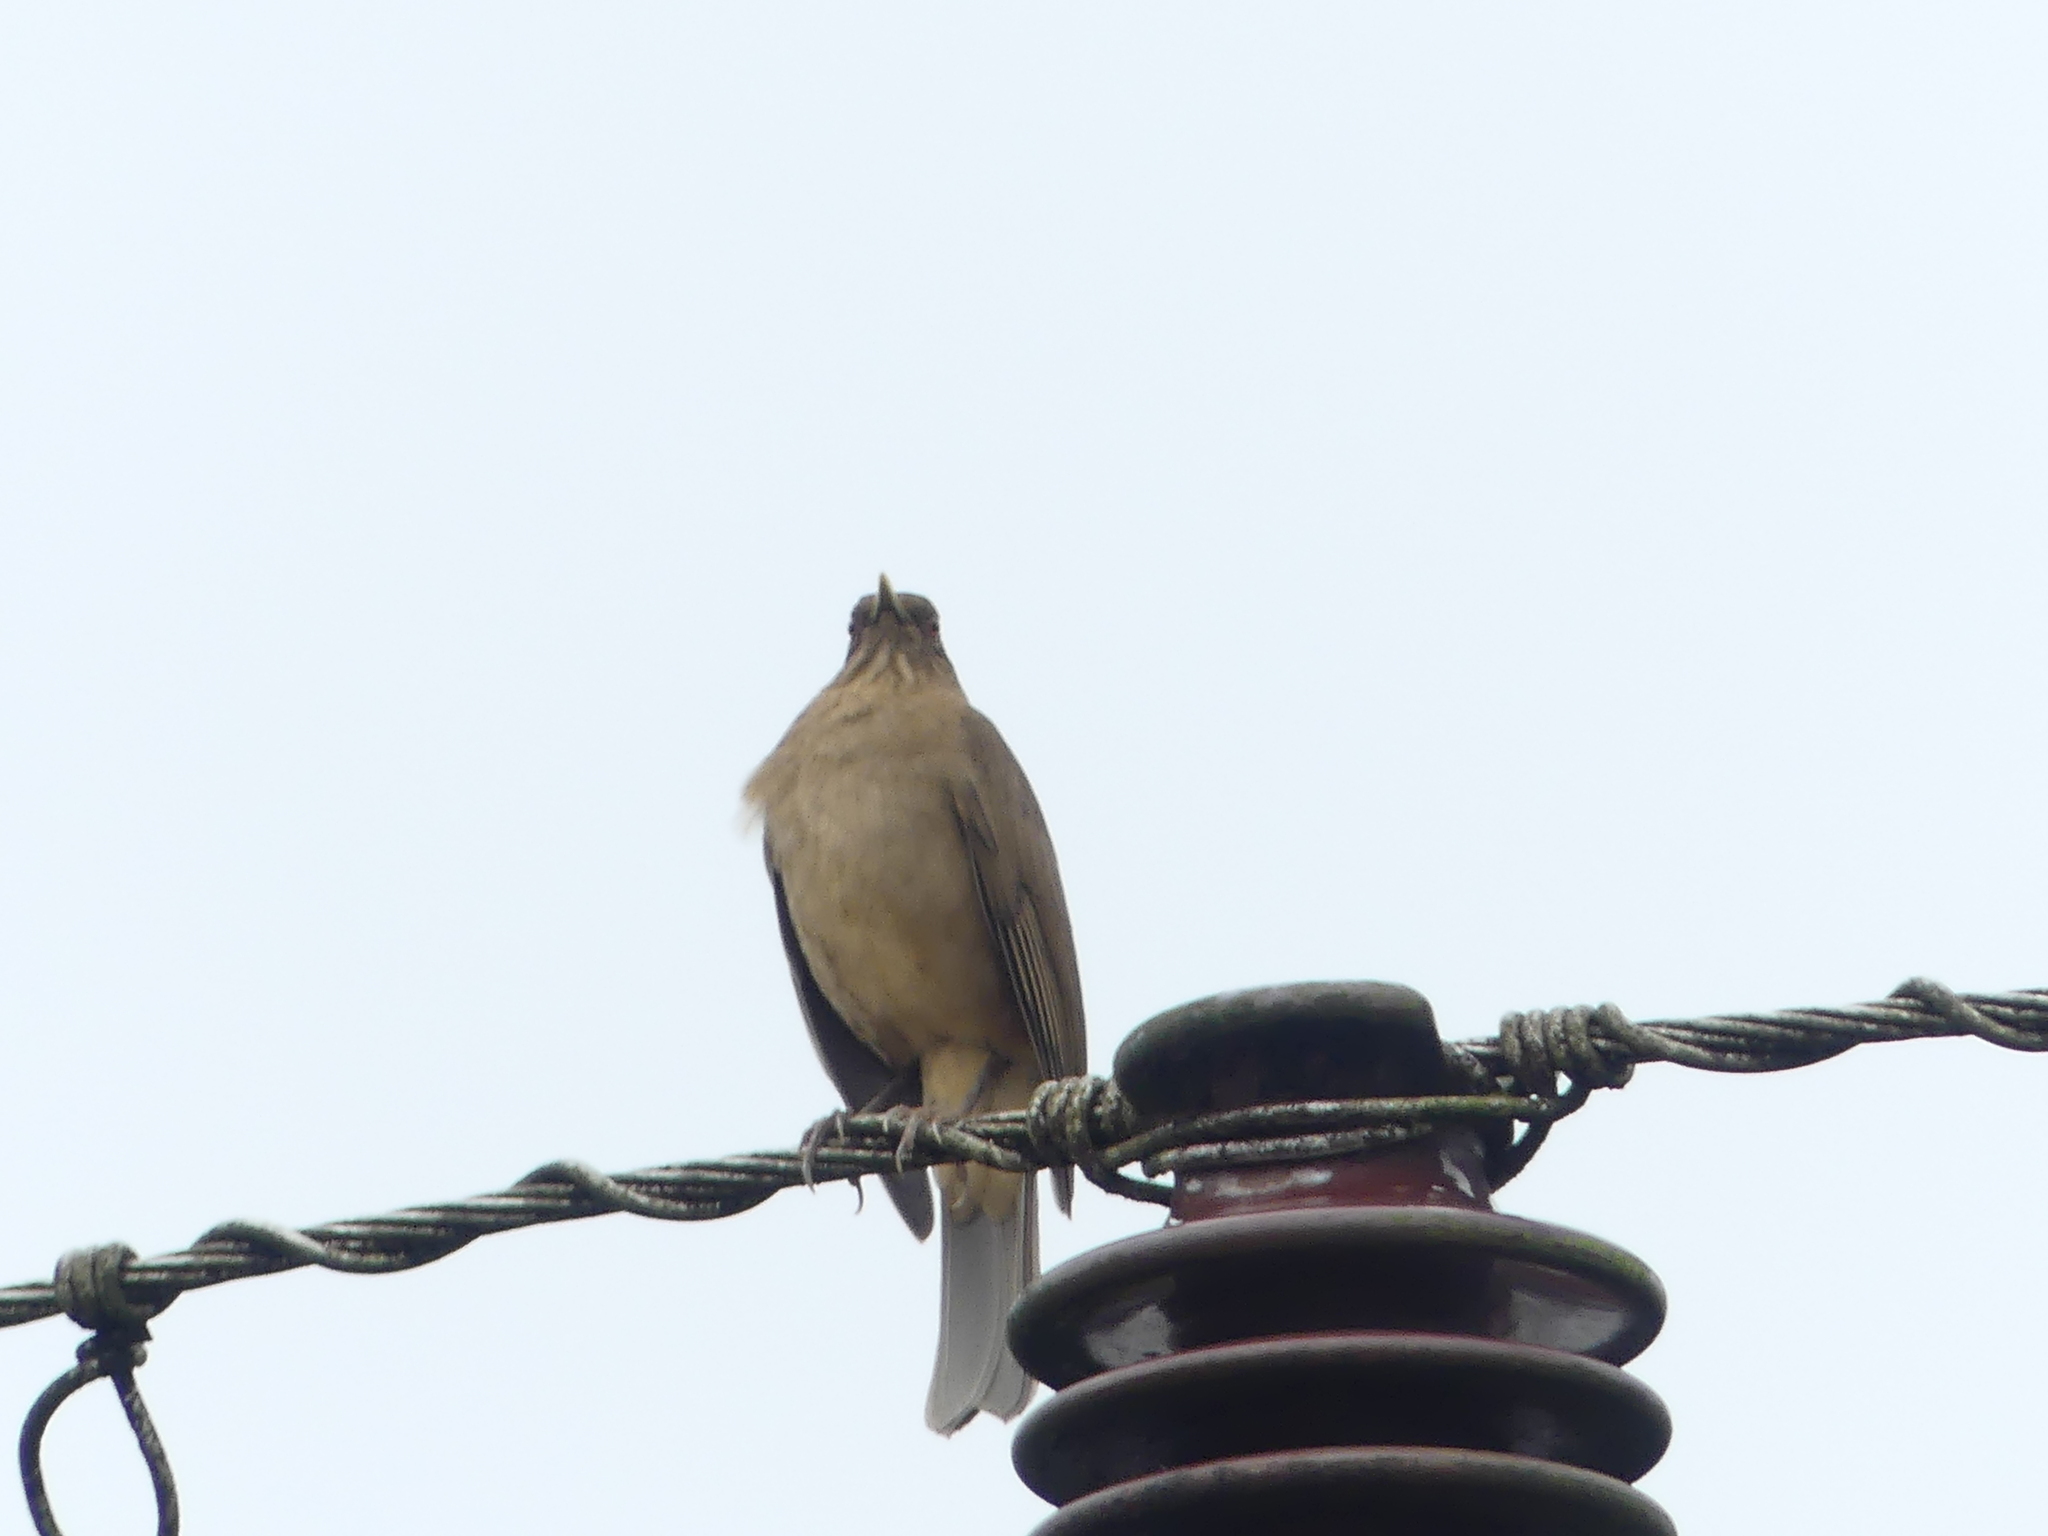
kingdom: Animalia
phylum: Chordata
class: Aves
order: Passeriformes
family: Turdidae
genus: Turdus
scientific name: Turdus grayi
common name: Clay-colored thrush
